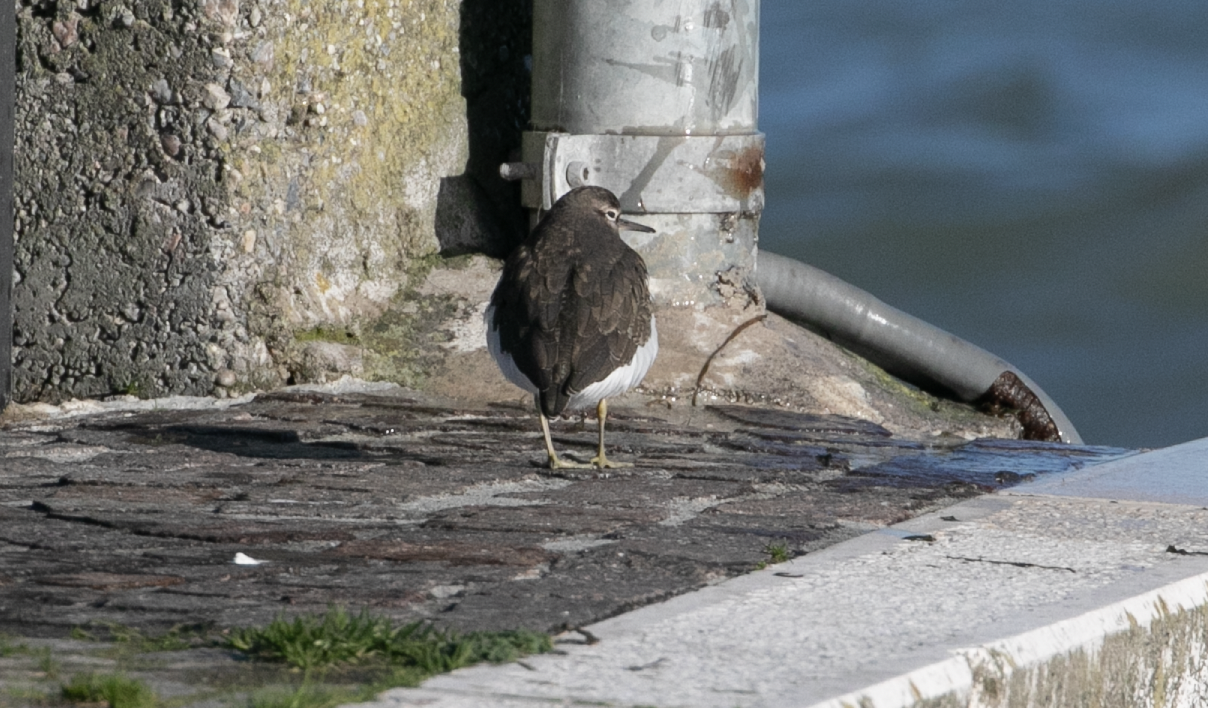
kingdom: Animalia
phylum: Chordata
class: Aves
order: Charadriiformes
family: Scolopacidae
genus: Actitis
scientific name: Actitis hypoleucos
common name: Common sandpiper
